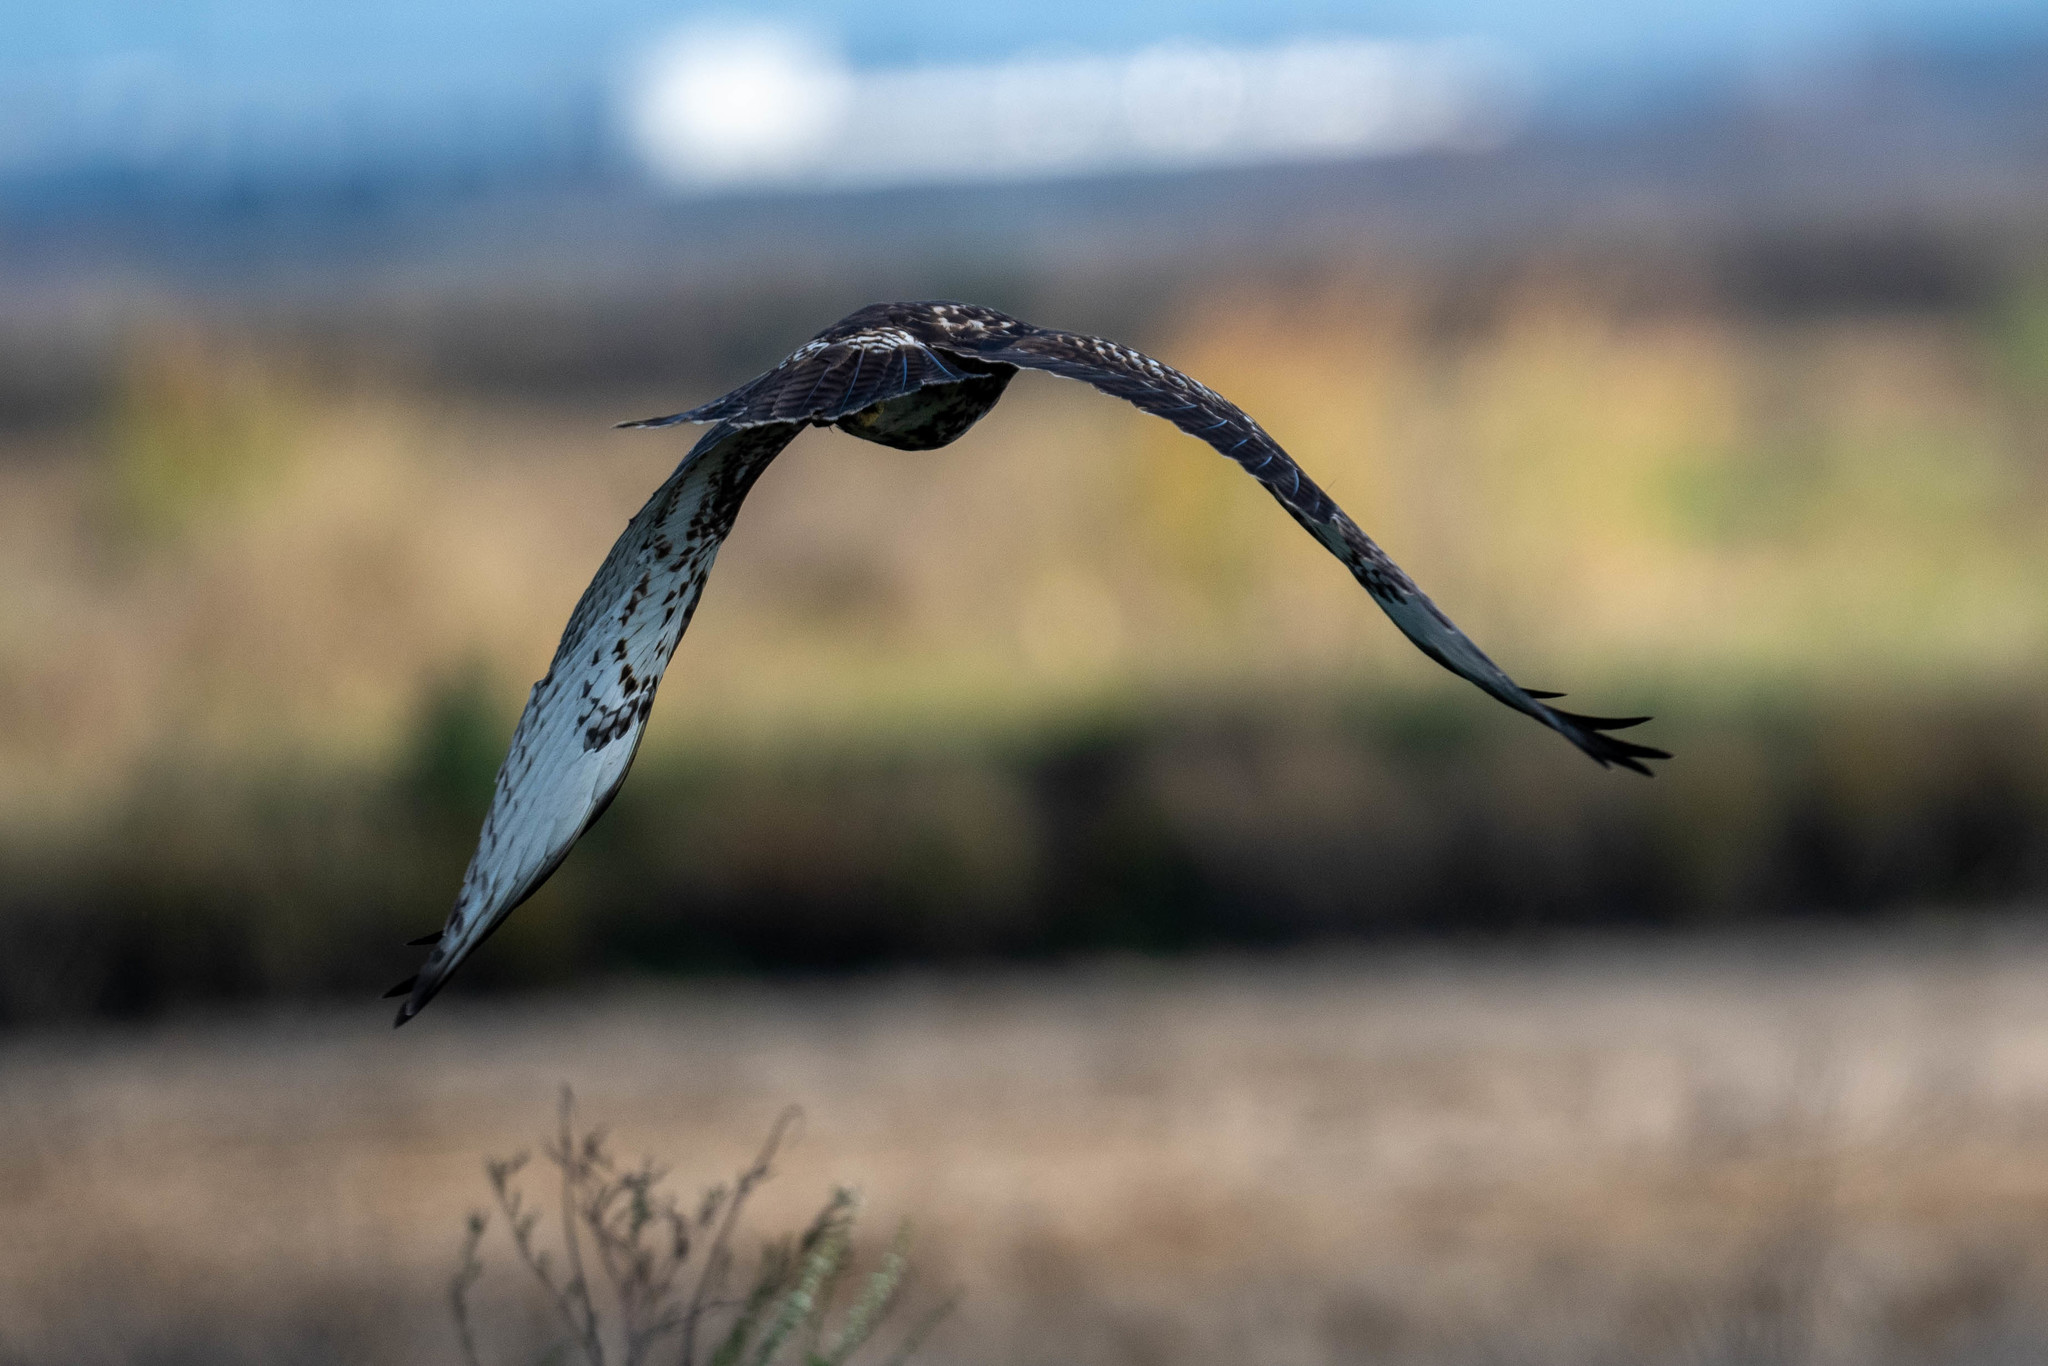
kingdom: Animalia
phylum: Chordata
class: Aves
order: Accipitriformes
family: Accipitridae
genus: Buteo
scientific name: Buteo jamaicensis
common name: Red-tailed hawk
